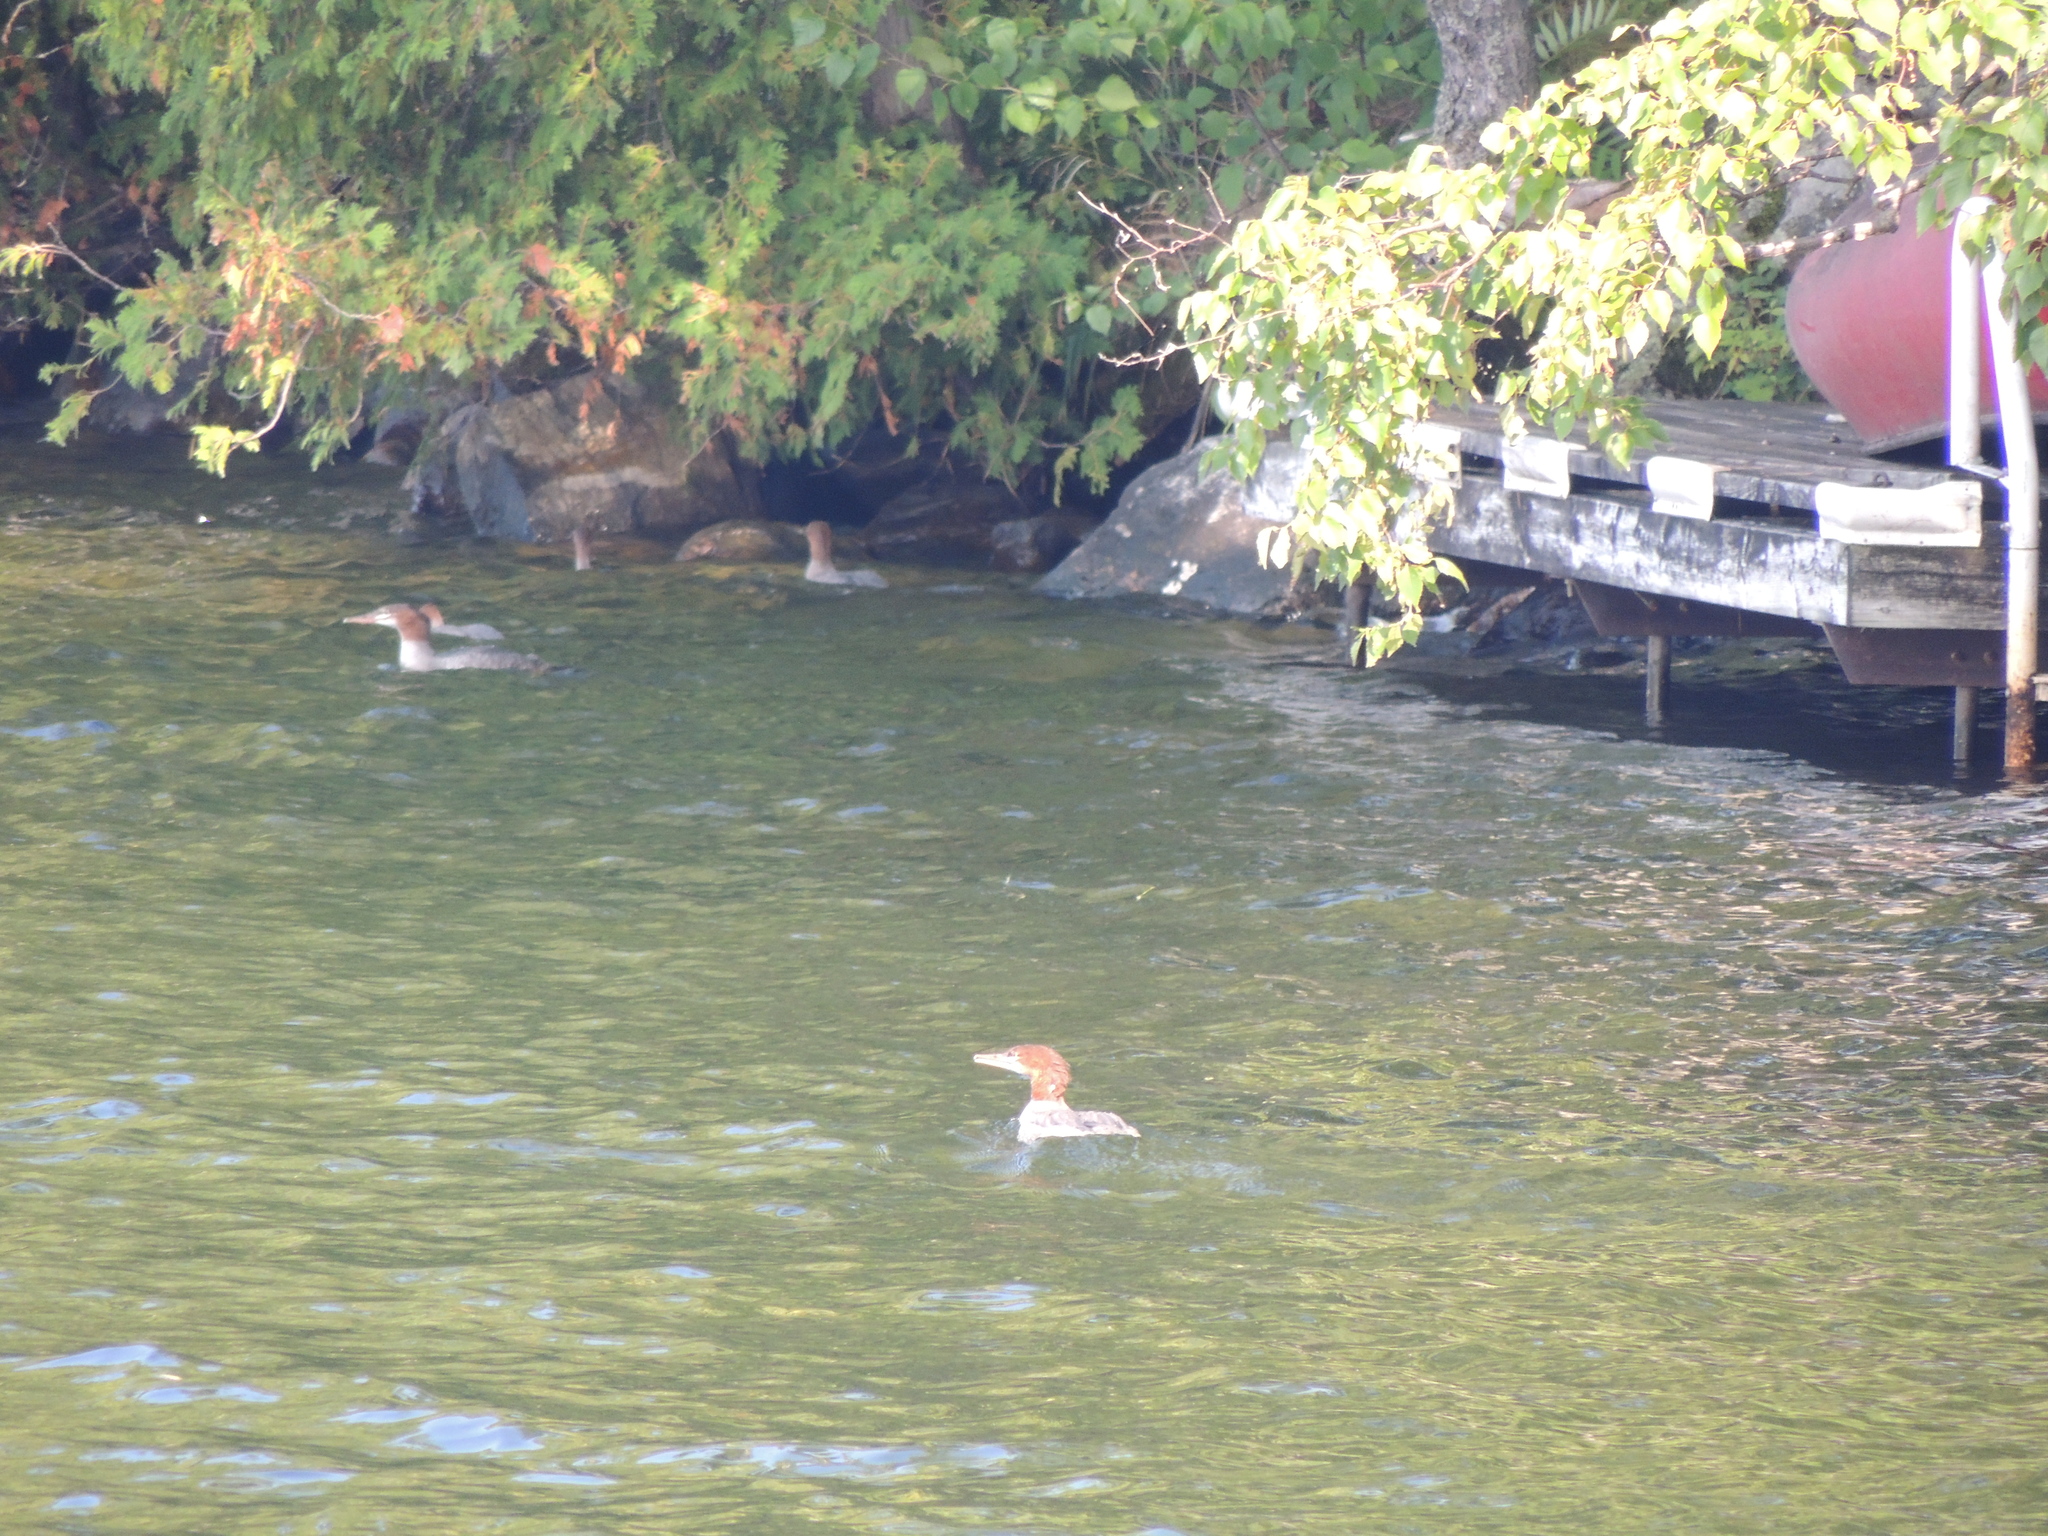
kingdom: Animalia
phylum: Chordata
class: Aves
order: Anseriformes
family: Anatidae
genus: Mergus
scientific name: Mergus merganser
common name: Common merganser
